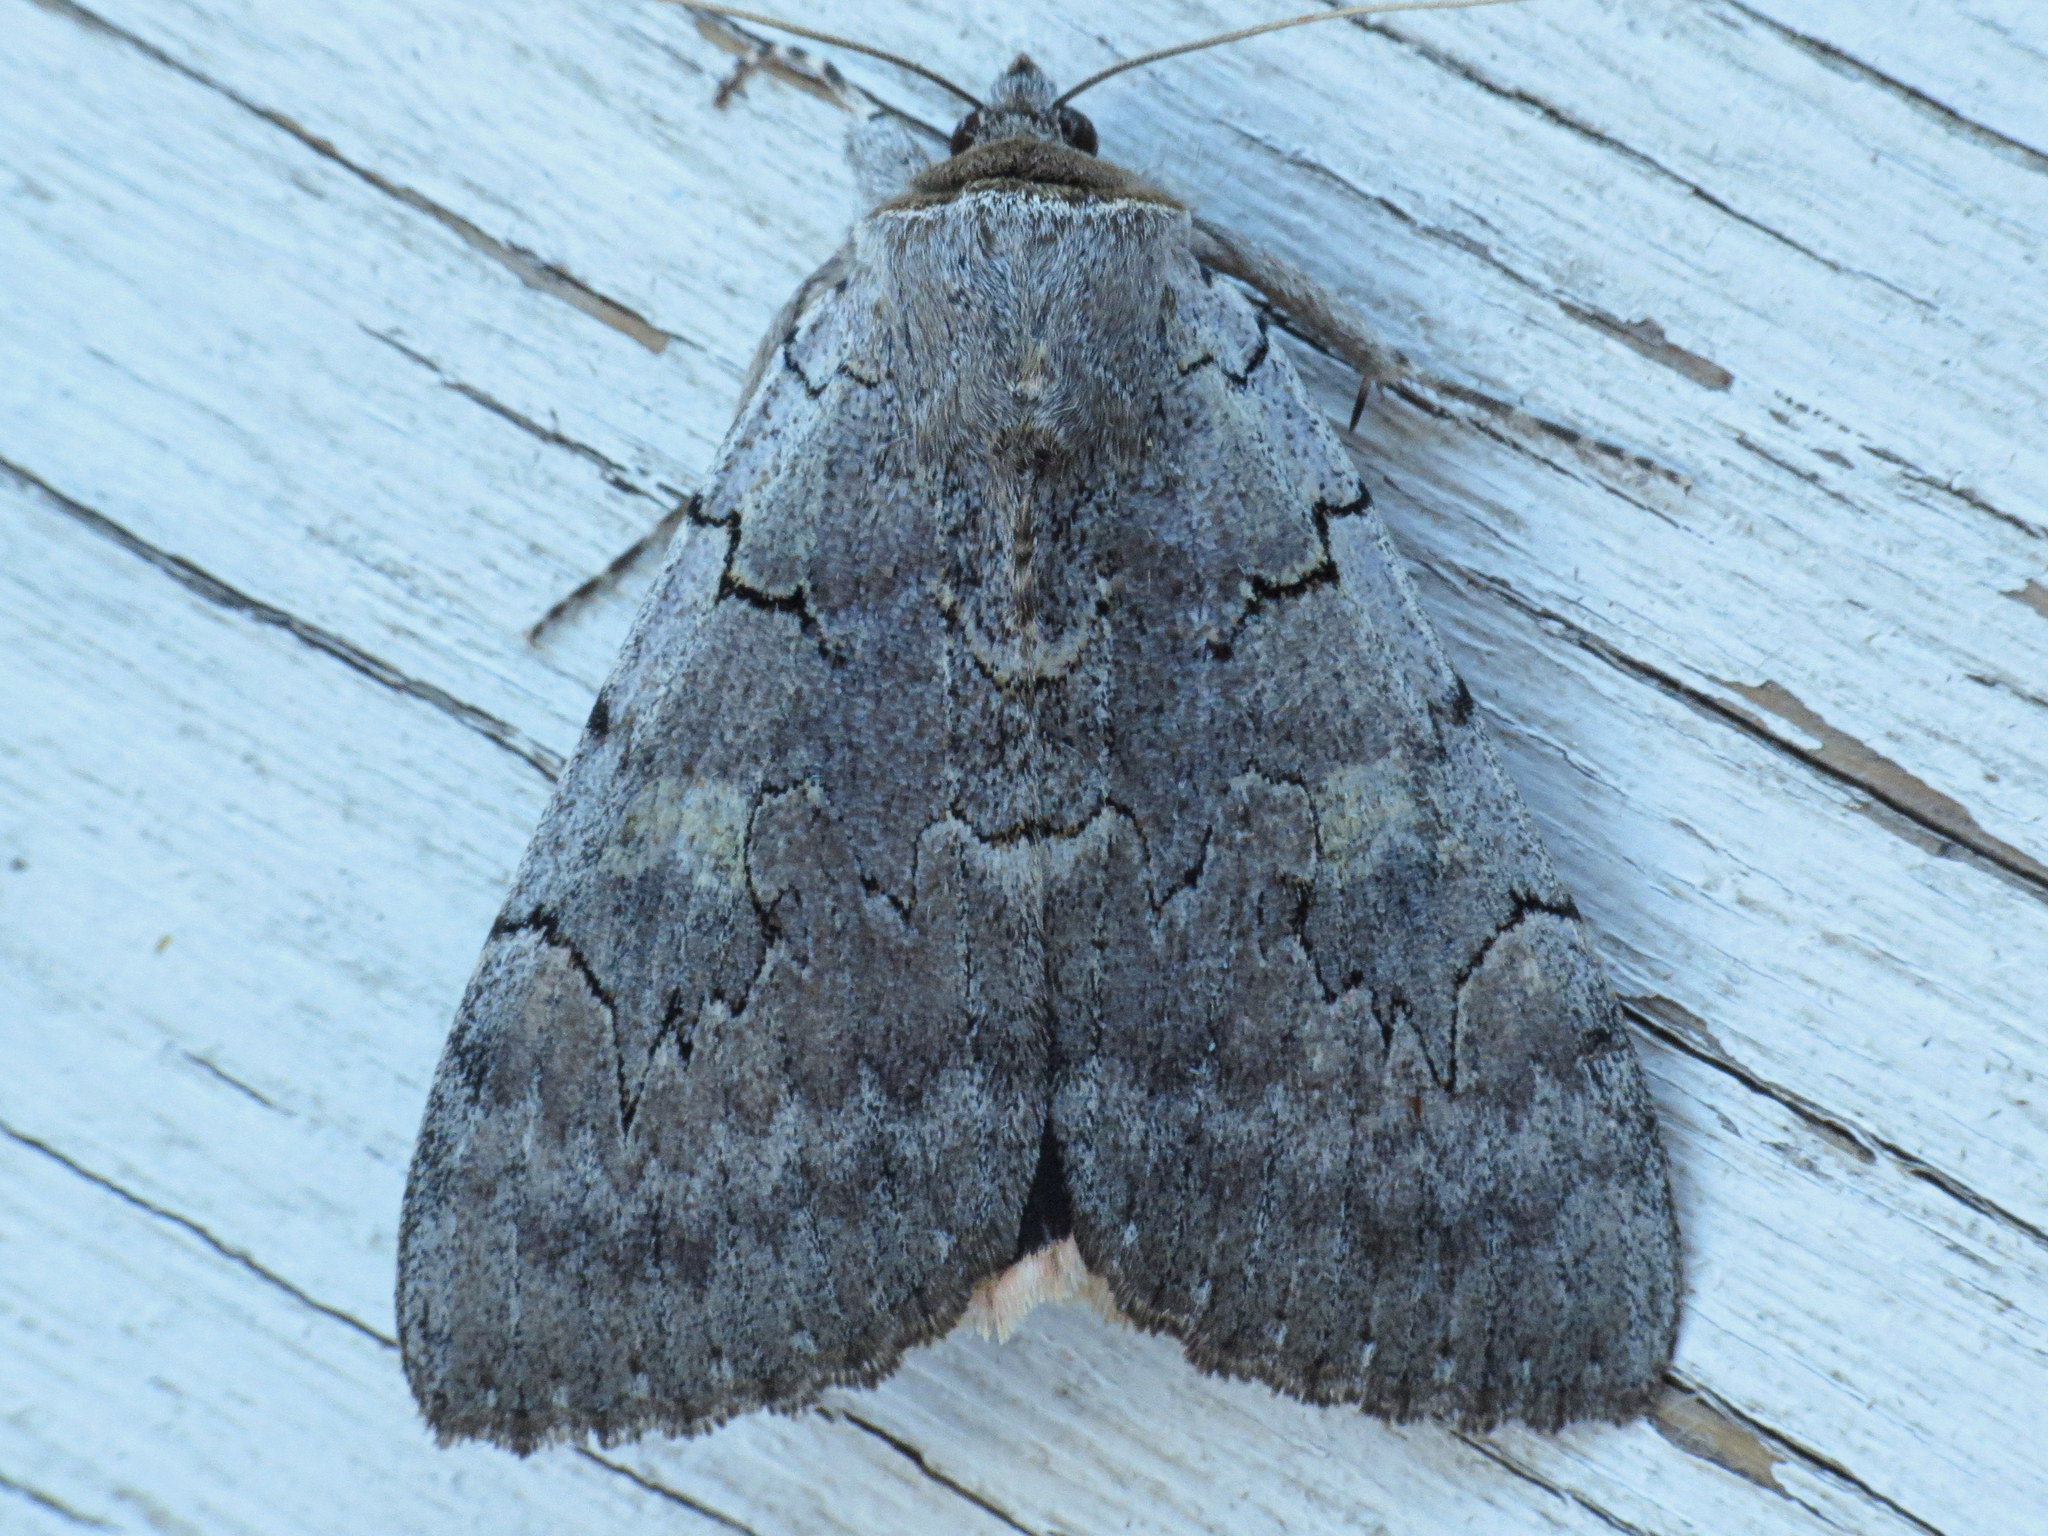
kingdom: Animalia
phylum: Arthropoda
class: Insecta
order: Lepidoptera
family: Erebidae
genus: Catocala
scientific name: Catocala concumbens
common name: Pink underwing
